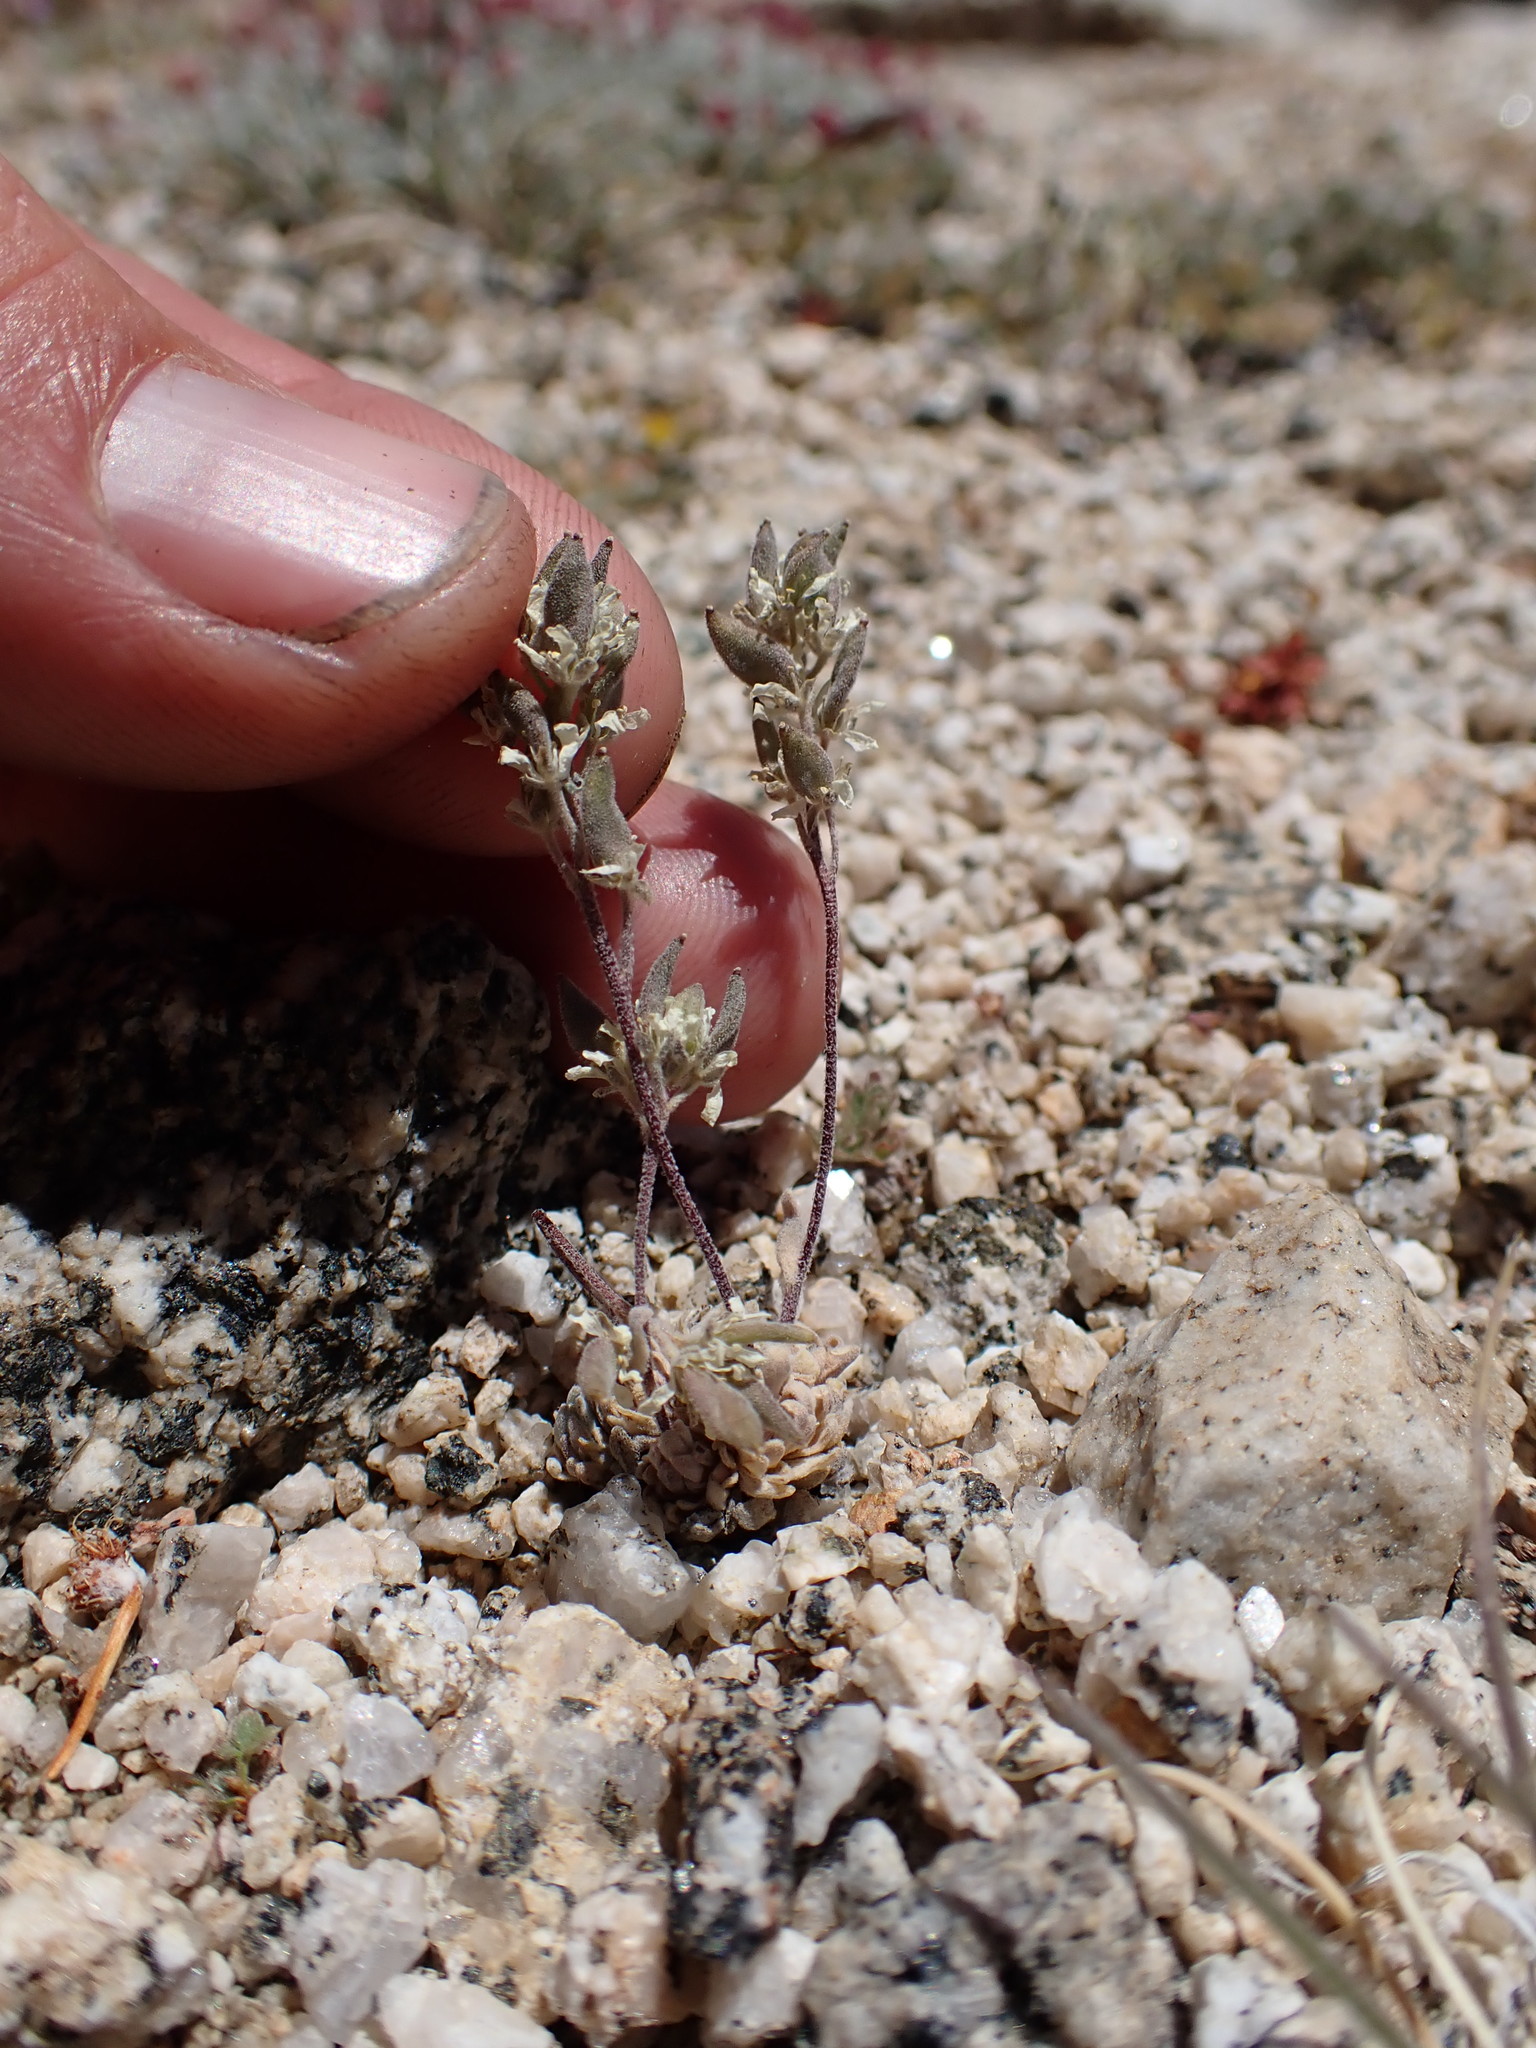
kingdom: Plantae
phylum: Tracheophyta
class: Magnoliopsida
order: Brassicales
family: Brassicaceae
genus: Draba
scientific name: Draba breweri
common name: Cushion draba
